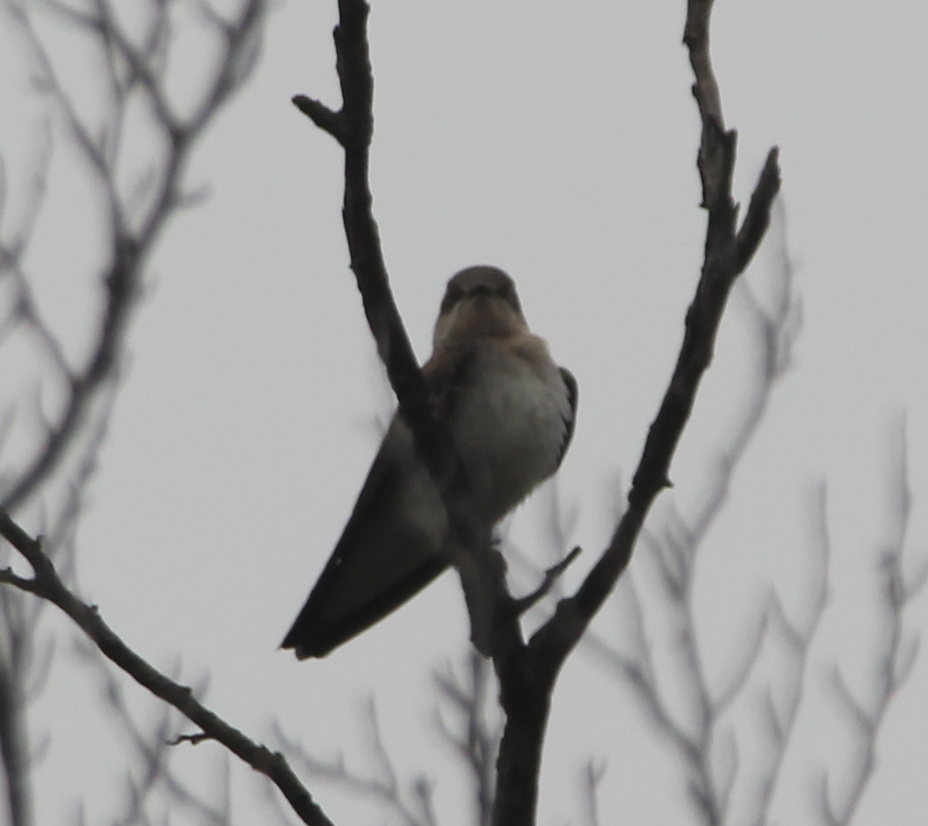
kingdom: Animalia
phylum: Chordata
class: Aves
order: Passeriformes
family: Hirundinidae
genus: Stelgidopteryx
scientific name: Stelgidopteryx serripennis
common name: Northern rough-winged swallow
